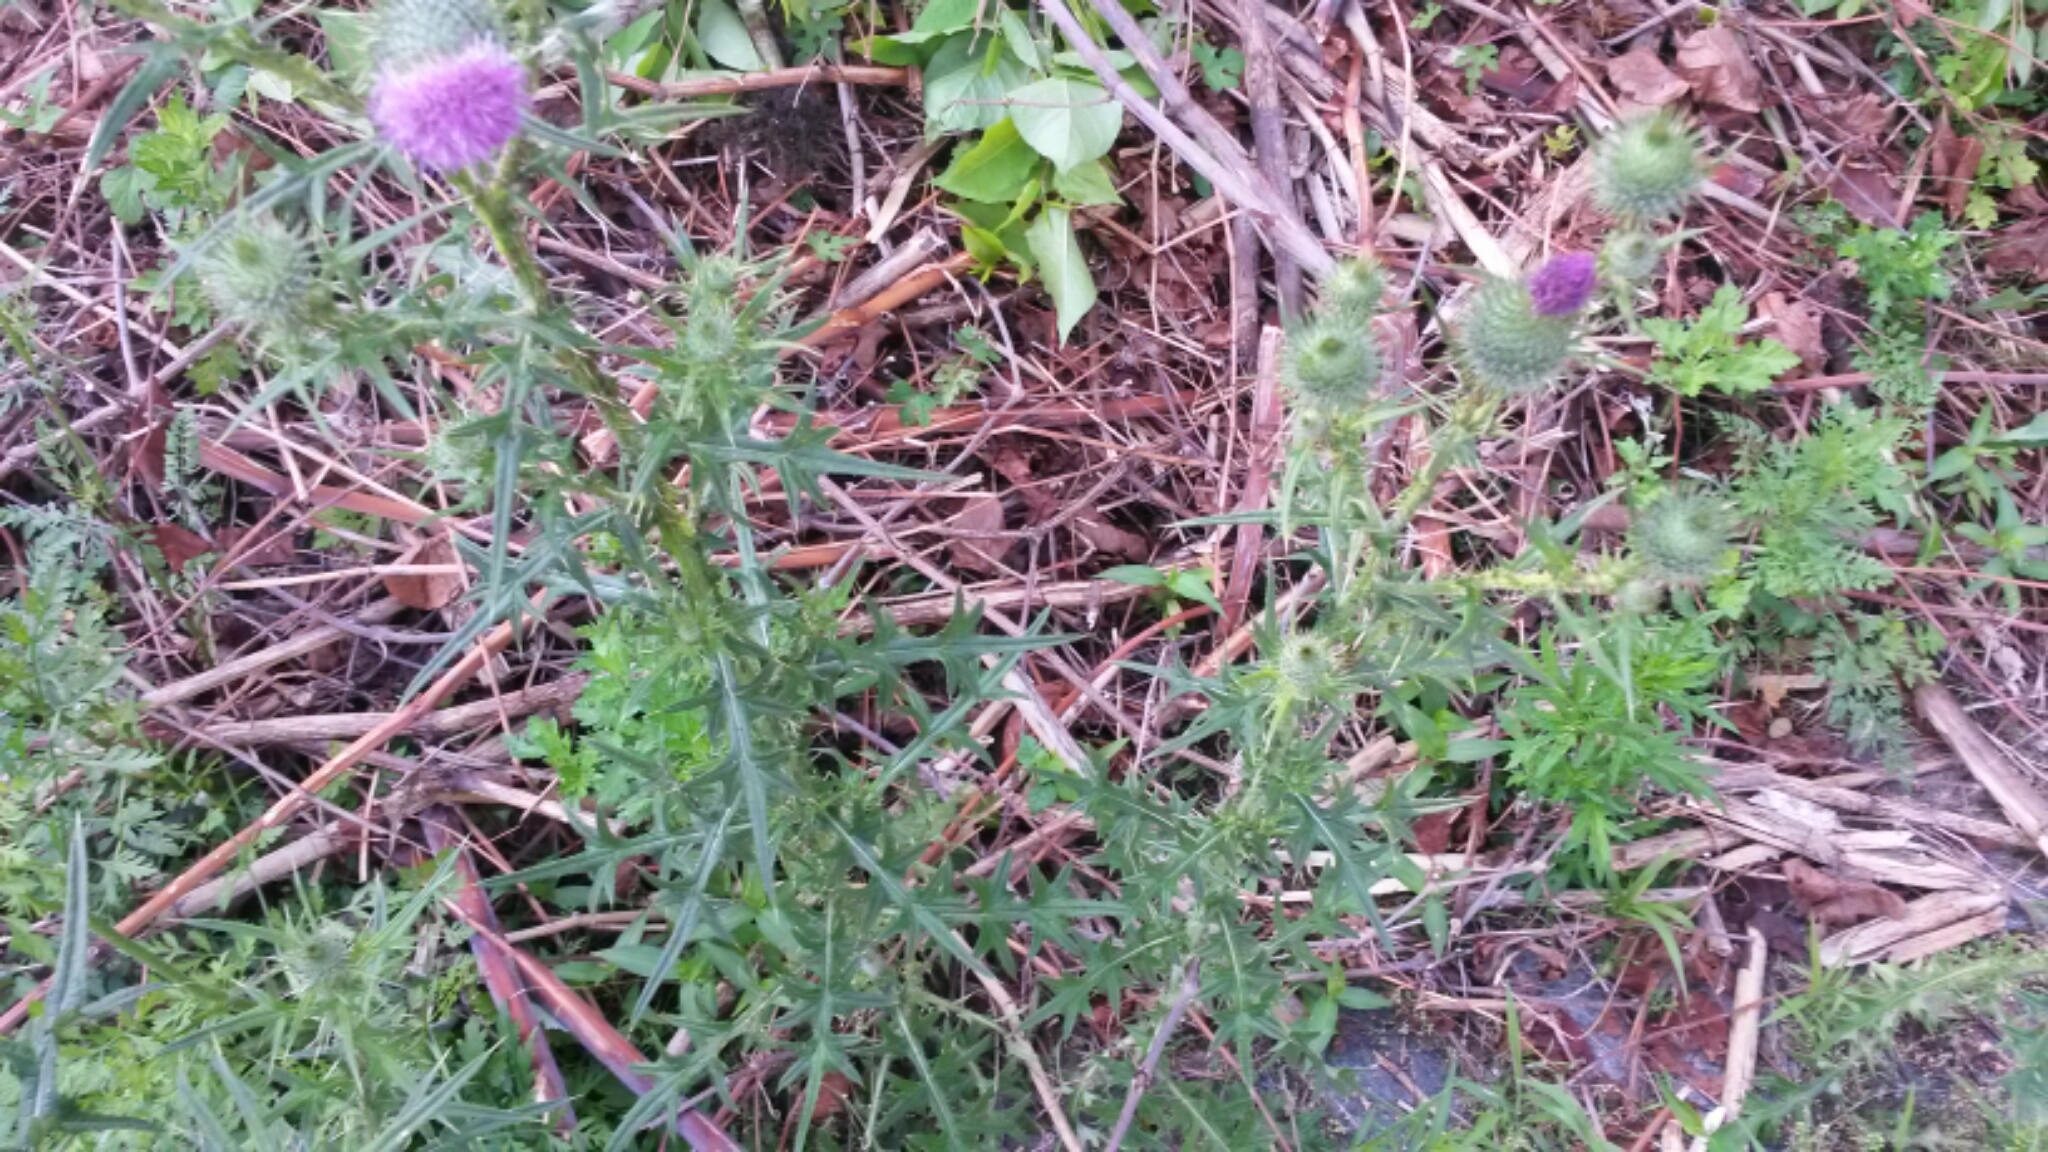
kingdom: Plantae
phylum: Tracheophyta
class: Magnoliopsida
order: Asterales
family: Asteraceae
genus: Cirsium
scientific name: Cirsium vulgare
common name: Bull thistle
